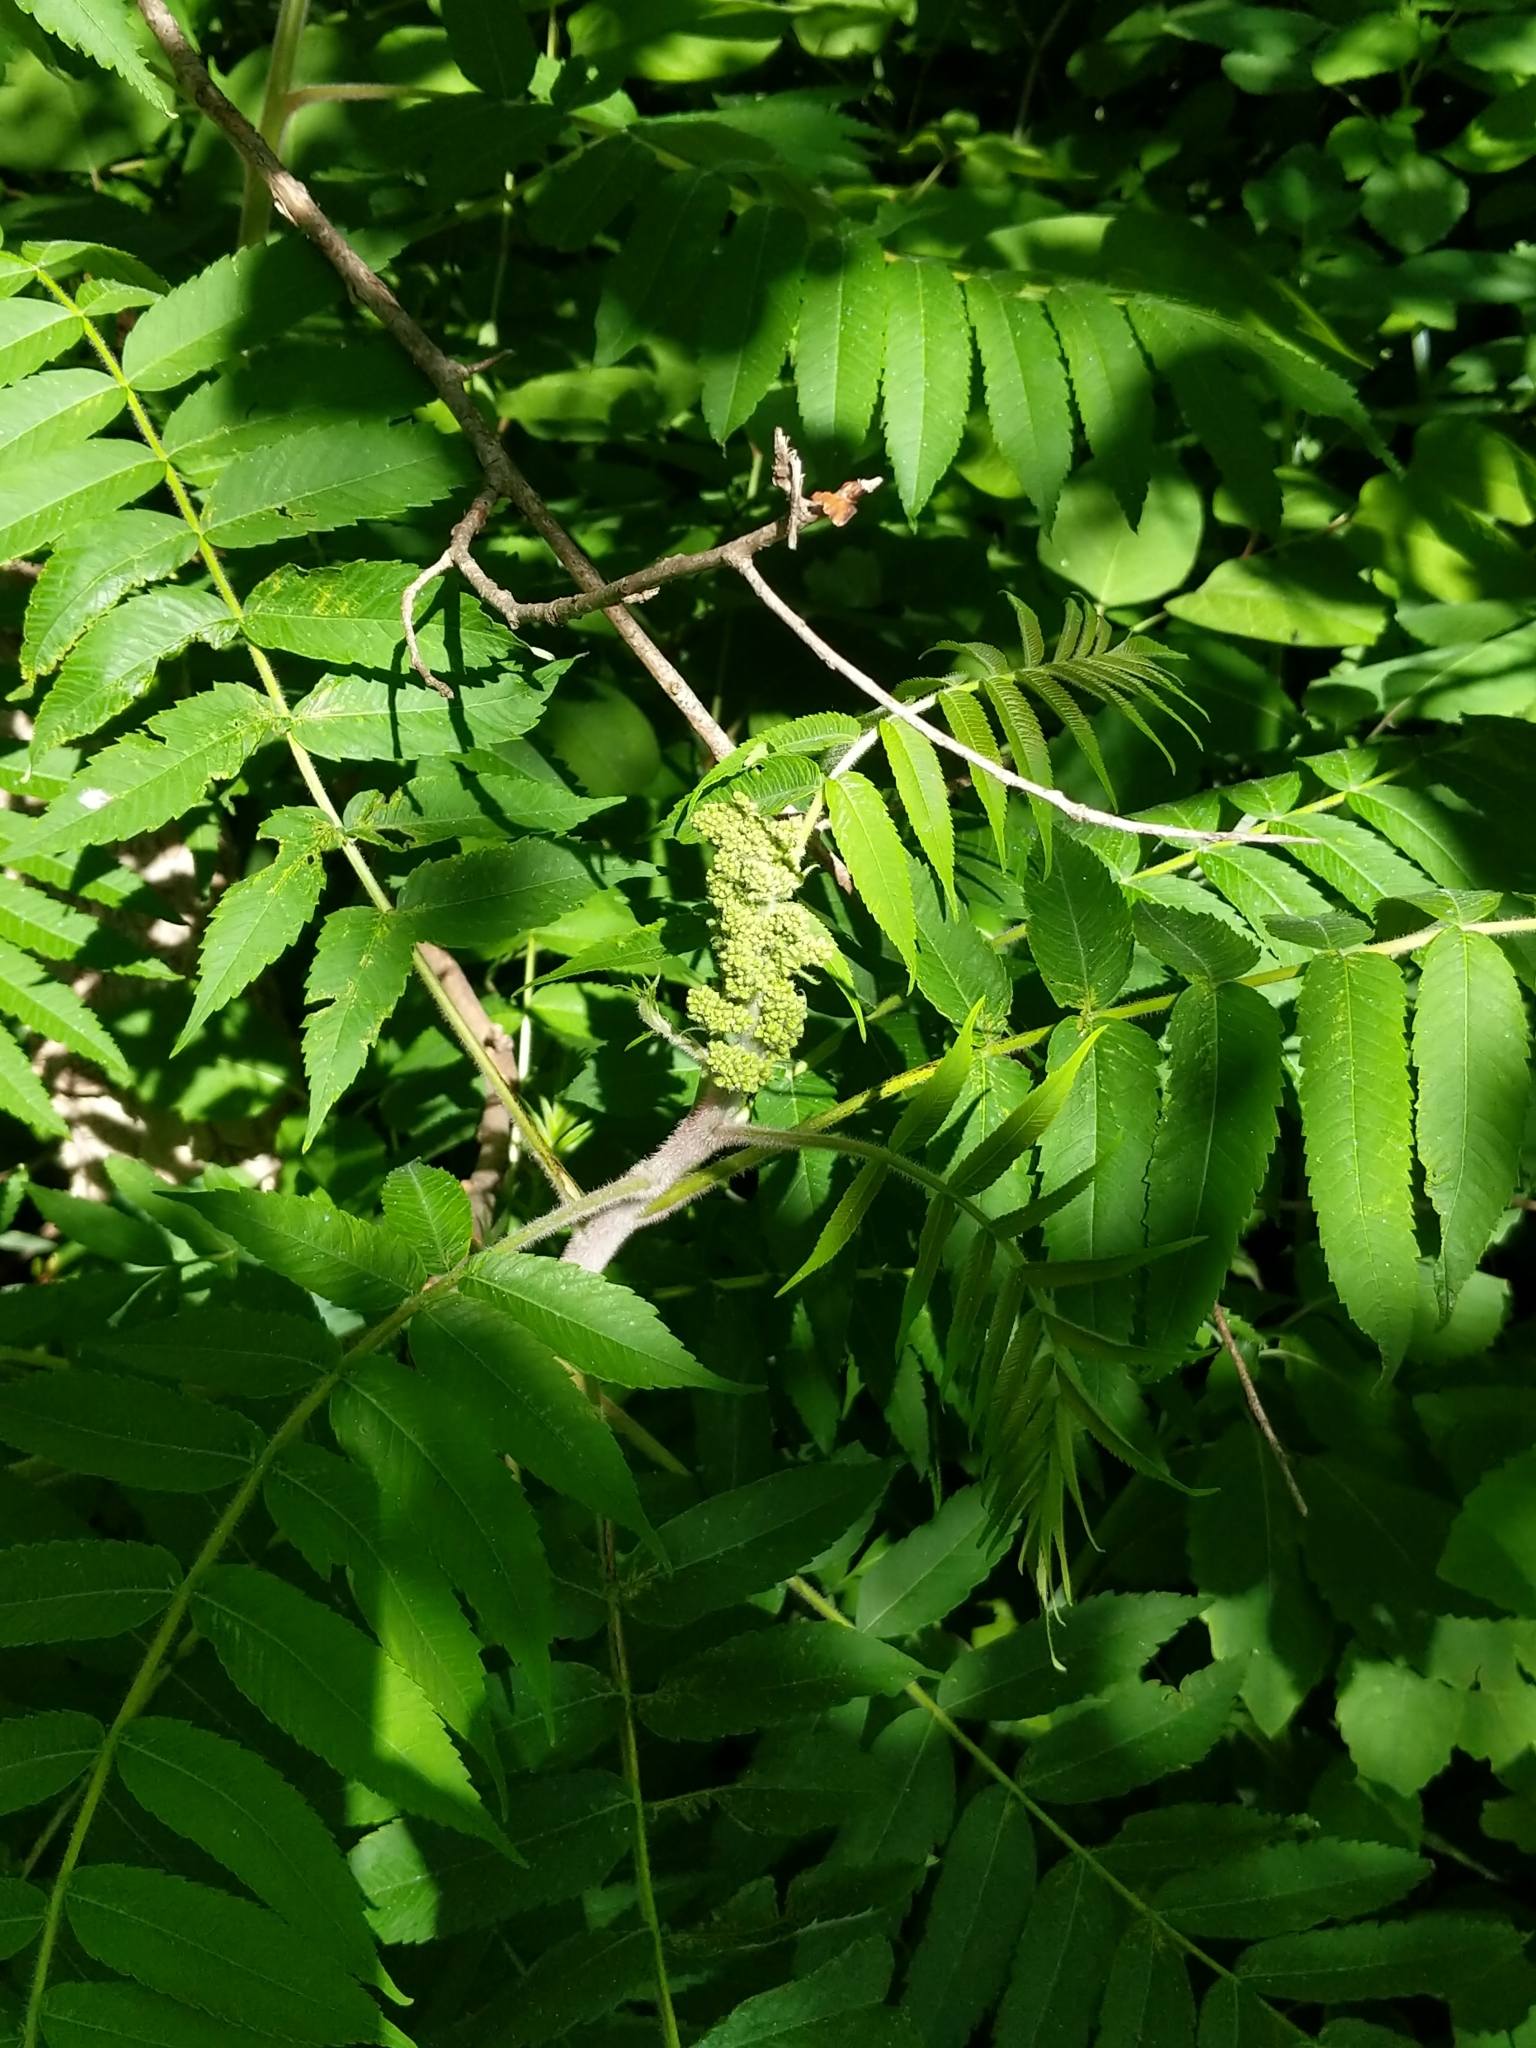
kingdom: Plantae
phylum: Tracheophyta
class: Magnoliopsida
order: Sapindales
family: Anacardiaceae
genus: Rhus
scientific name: Rhus typhina
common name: Staghorn sumac
